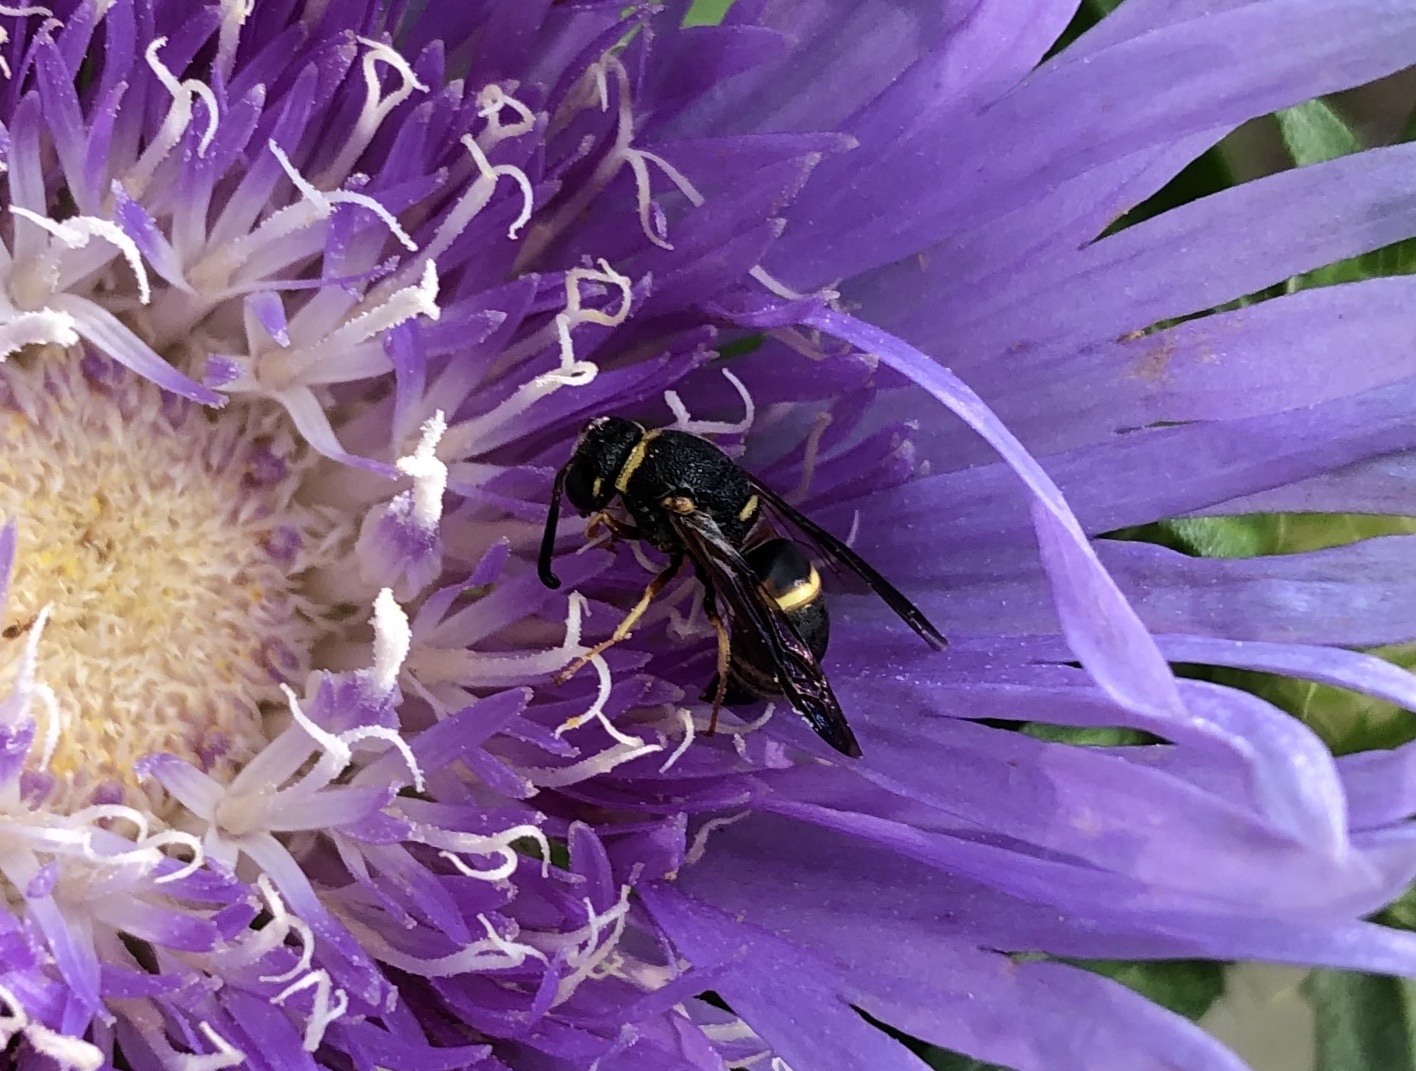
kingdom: Animalia
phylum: Arthropoda
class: Insecta
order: Hymenoptera
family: Eumenidae
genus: Euodynerus
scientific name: Euodynerus
